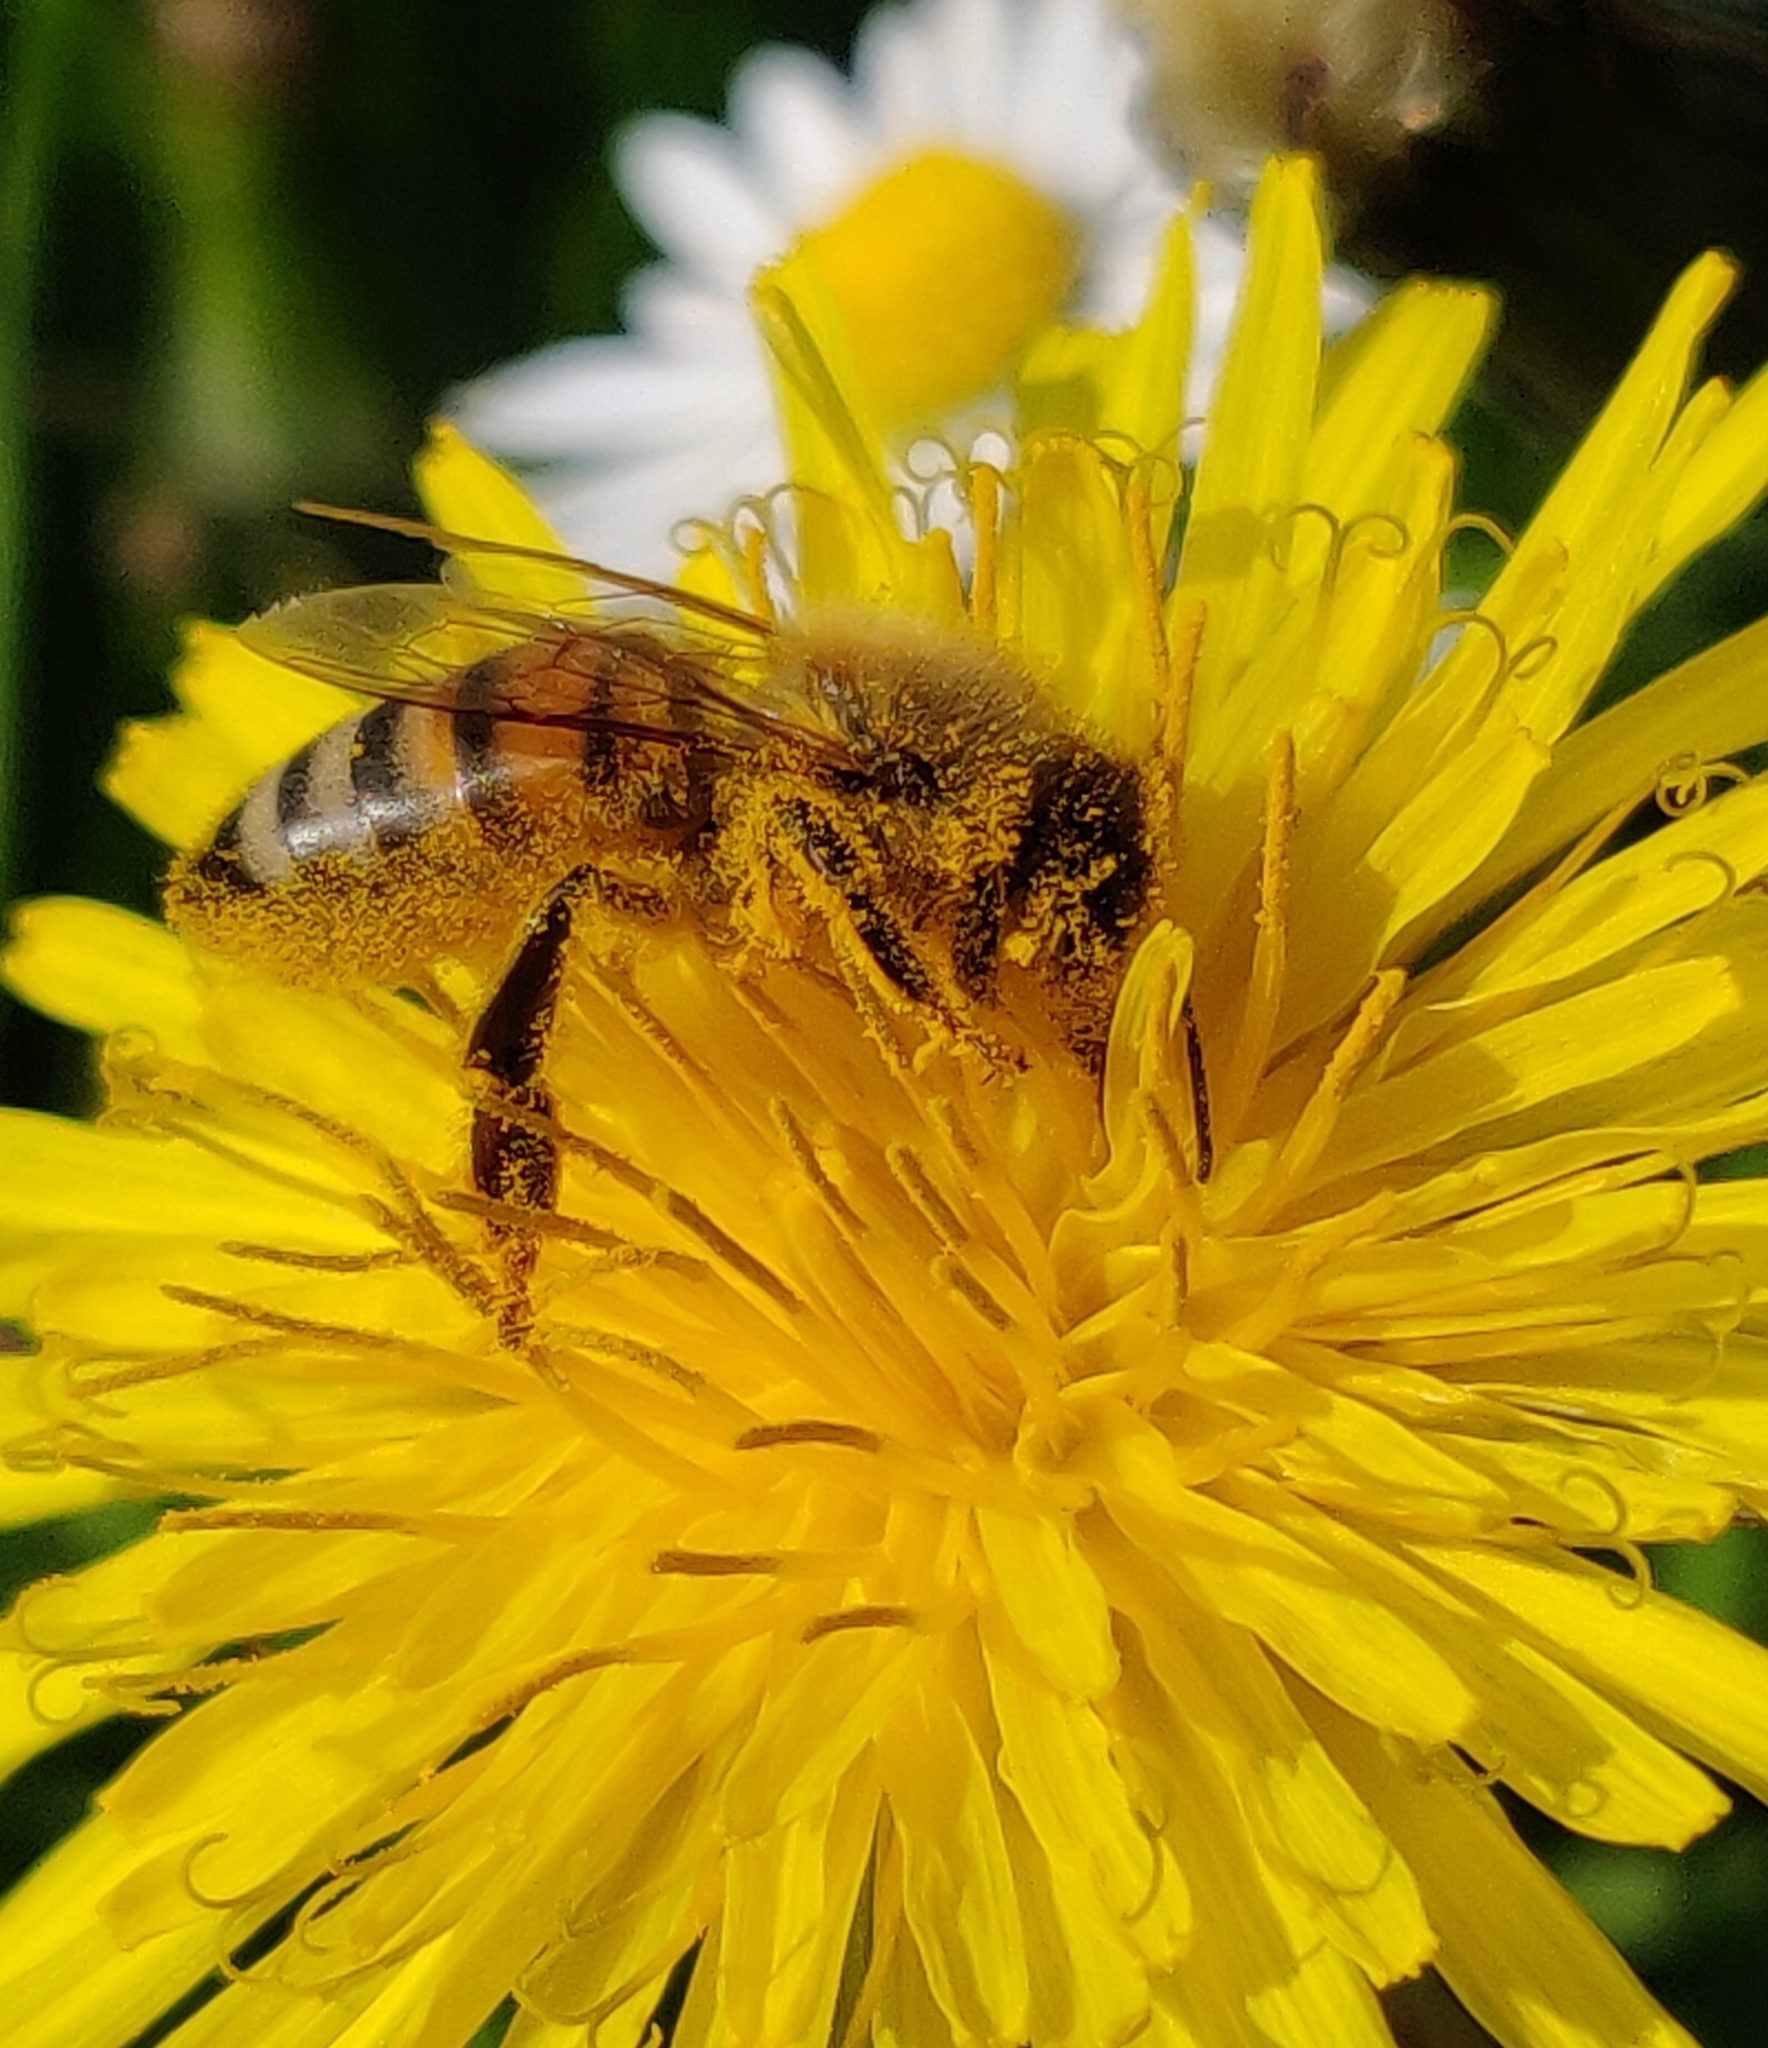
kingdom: Animalia
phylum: Arthropoda
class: Insecta
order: Hymenoptera
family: Apidae
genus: Apis
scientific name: Apis mellifera
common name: Honey bee
